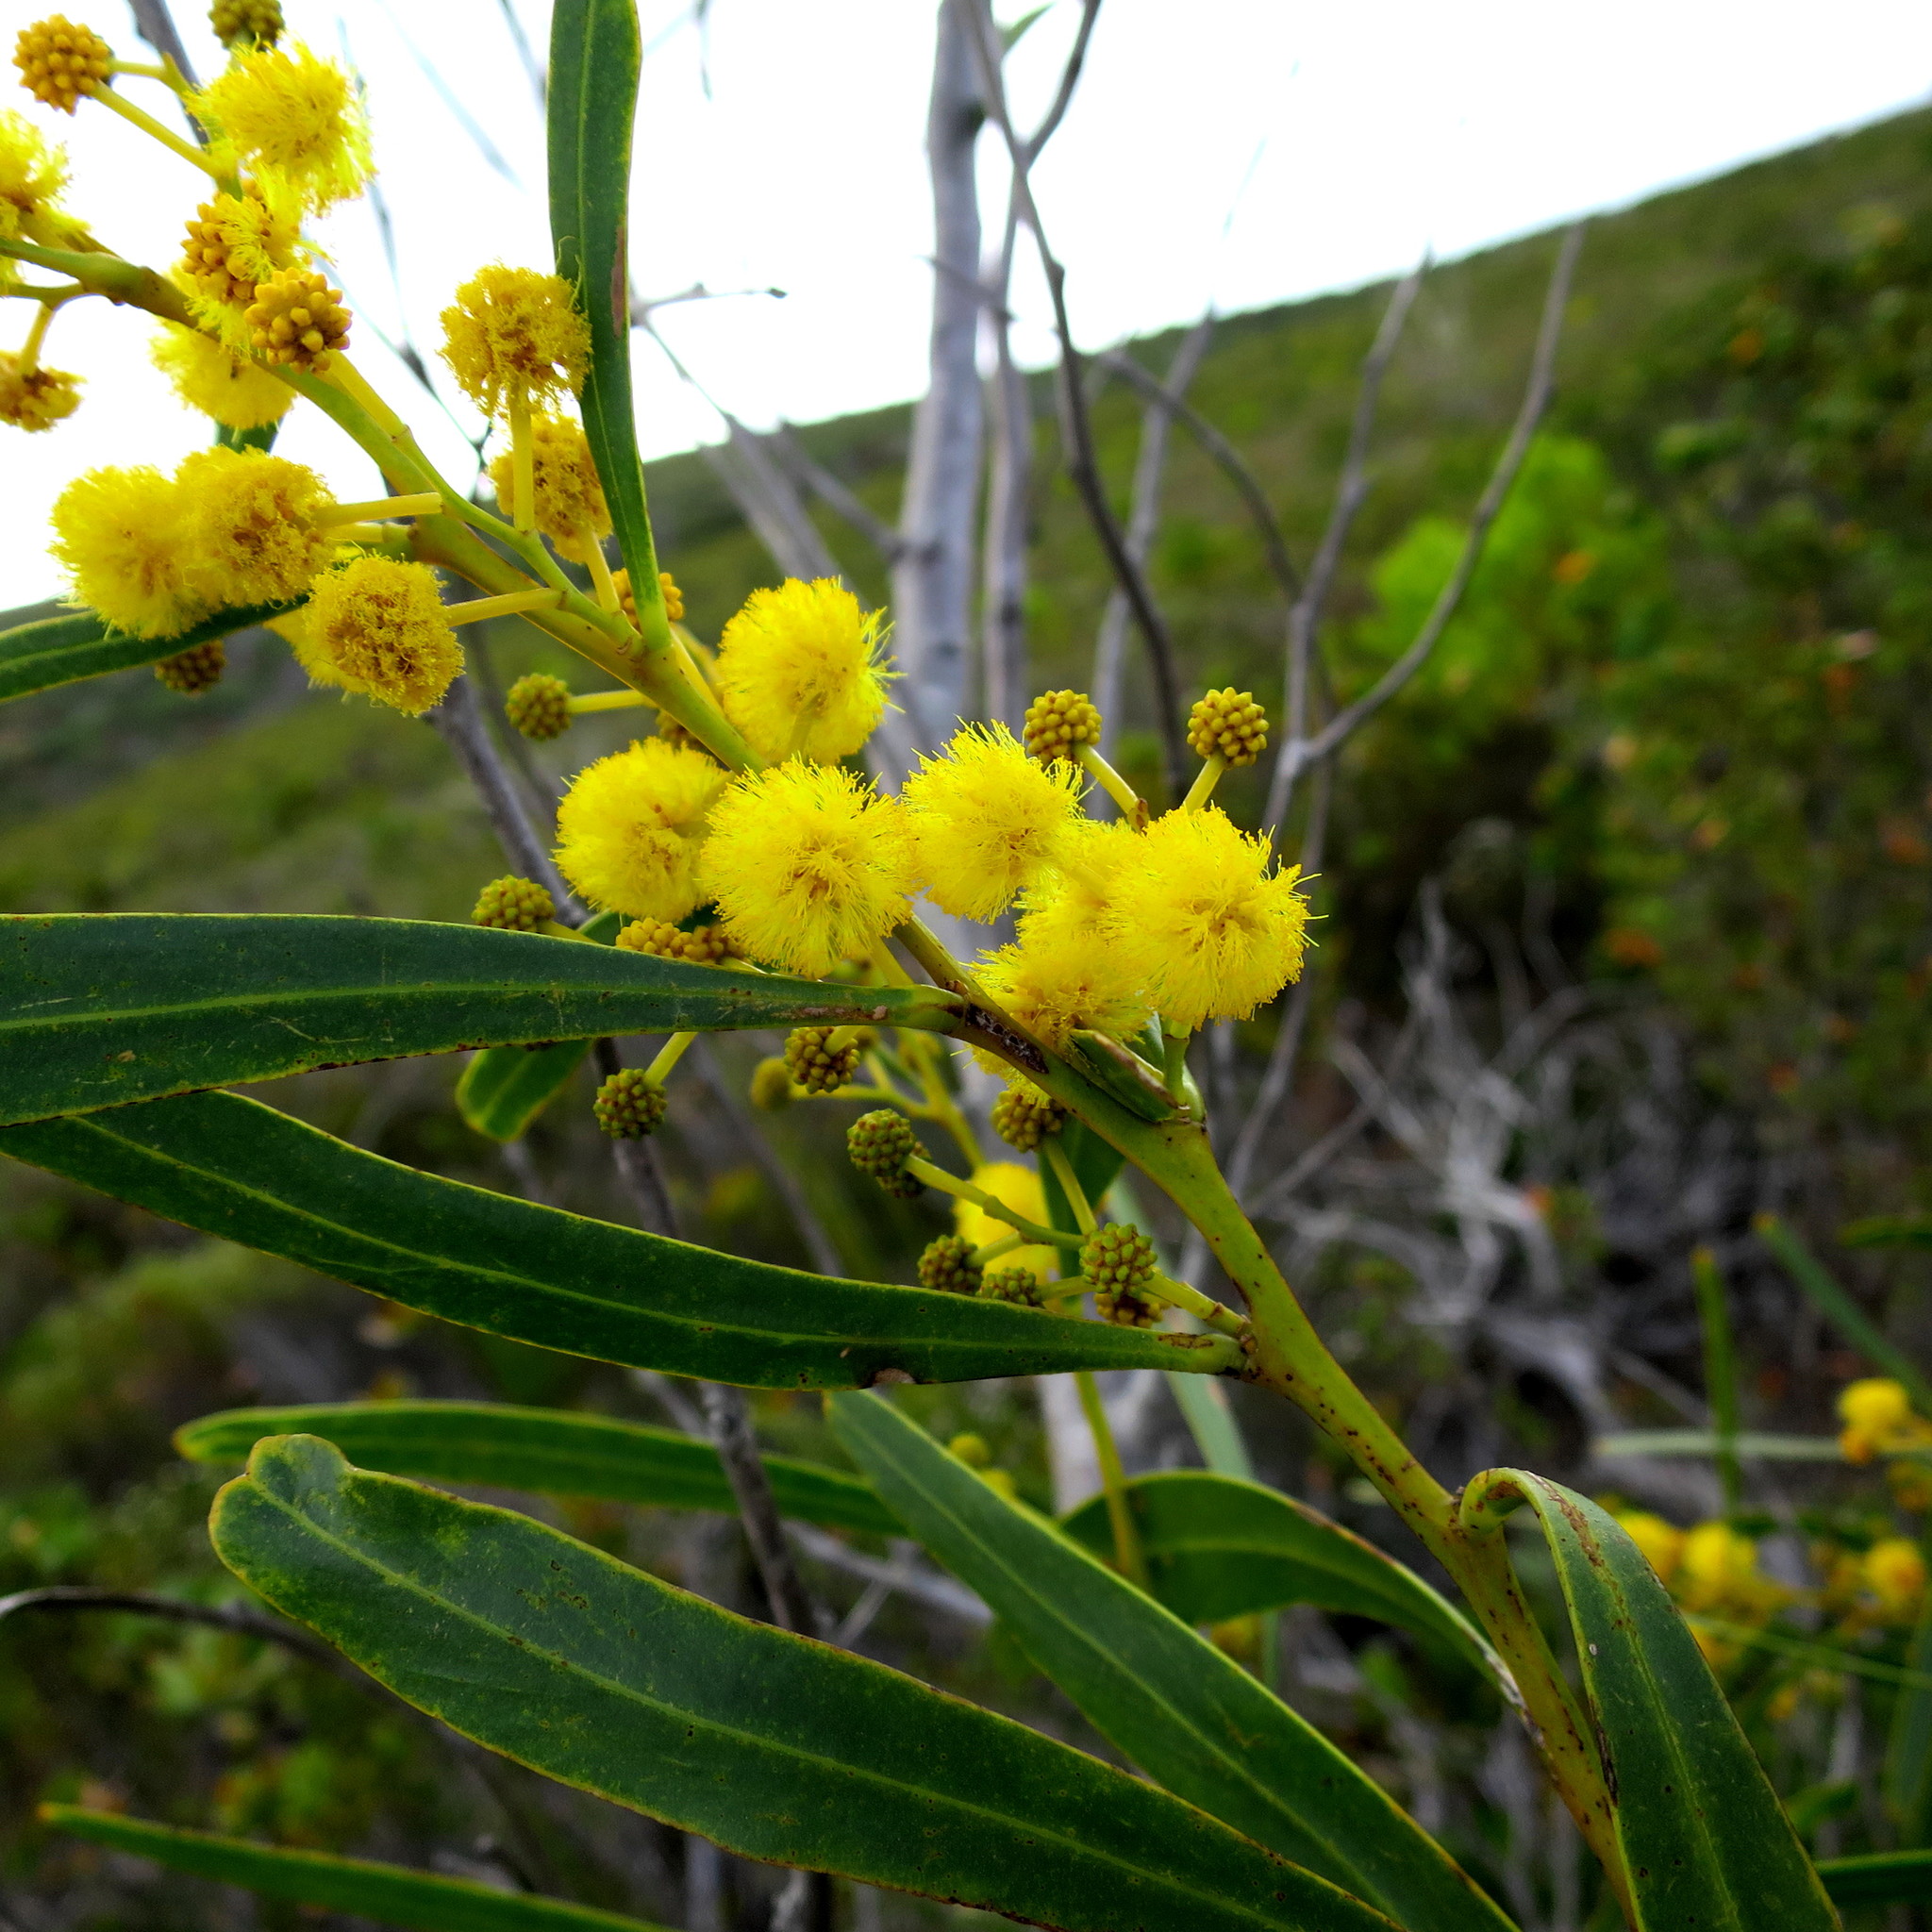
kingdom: Plantae
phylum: Tracheophyta
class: Magnoliopsida
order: Fabales
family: Fabaceae
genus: Acacia
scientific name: Acacia saligna
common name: Orange wattle
